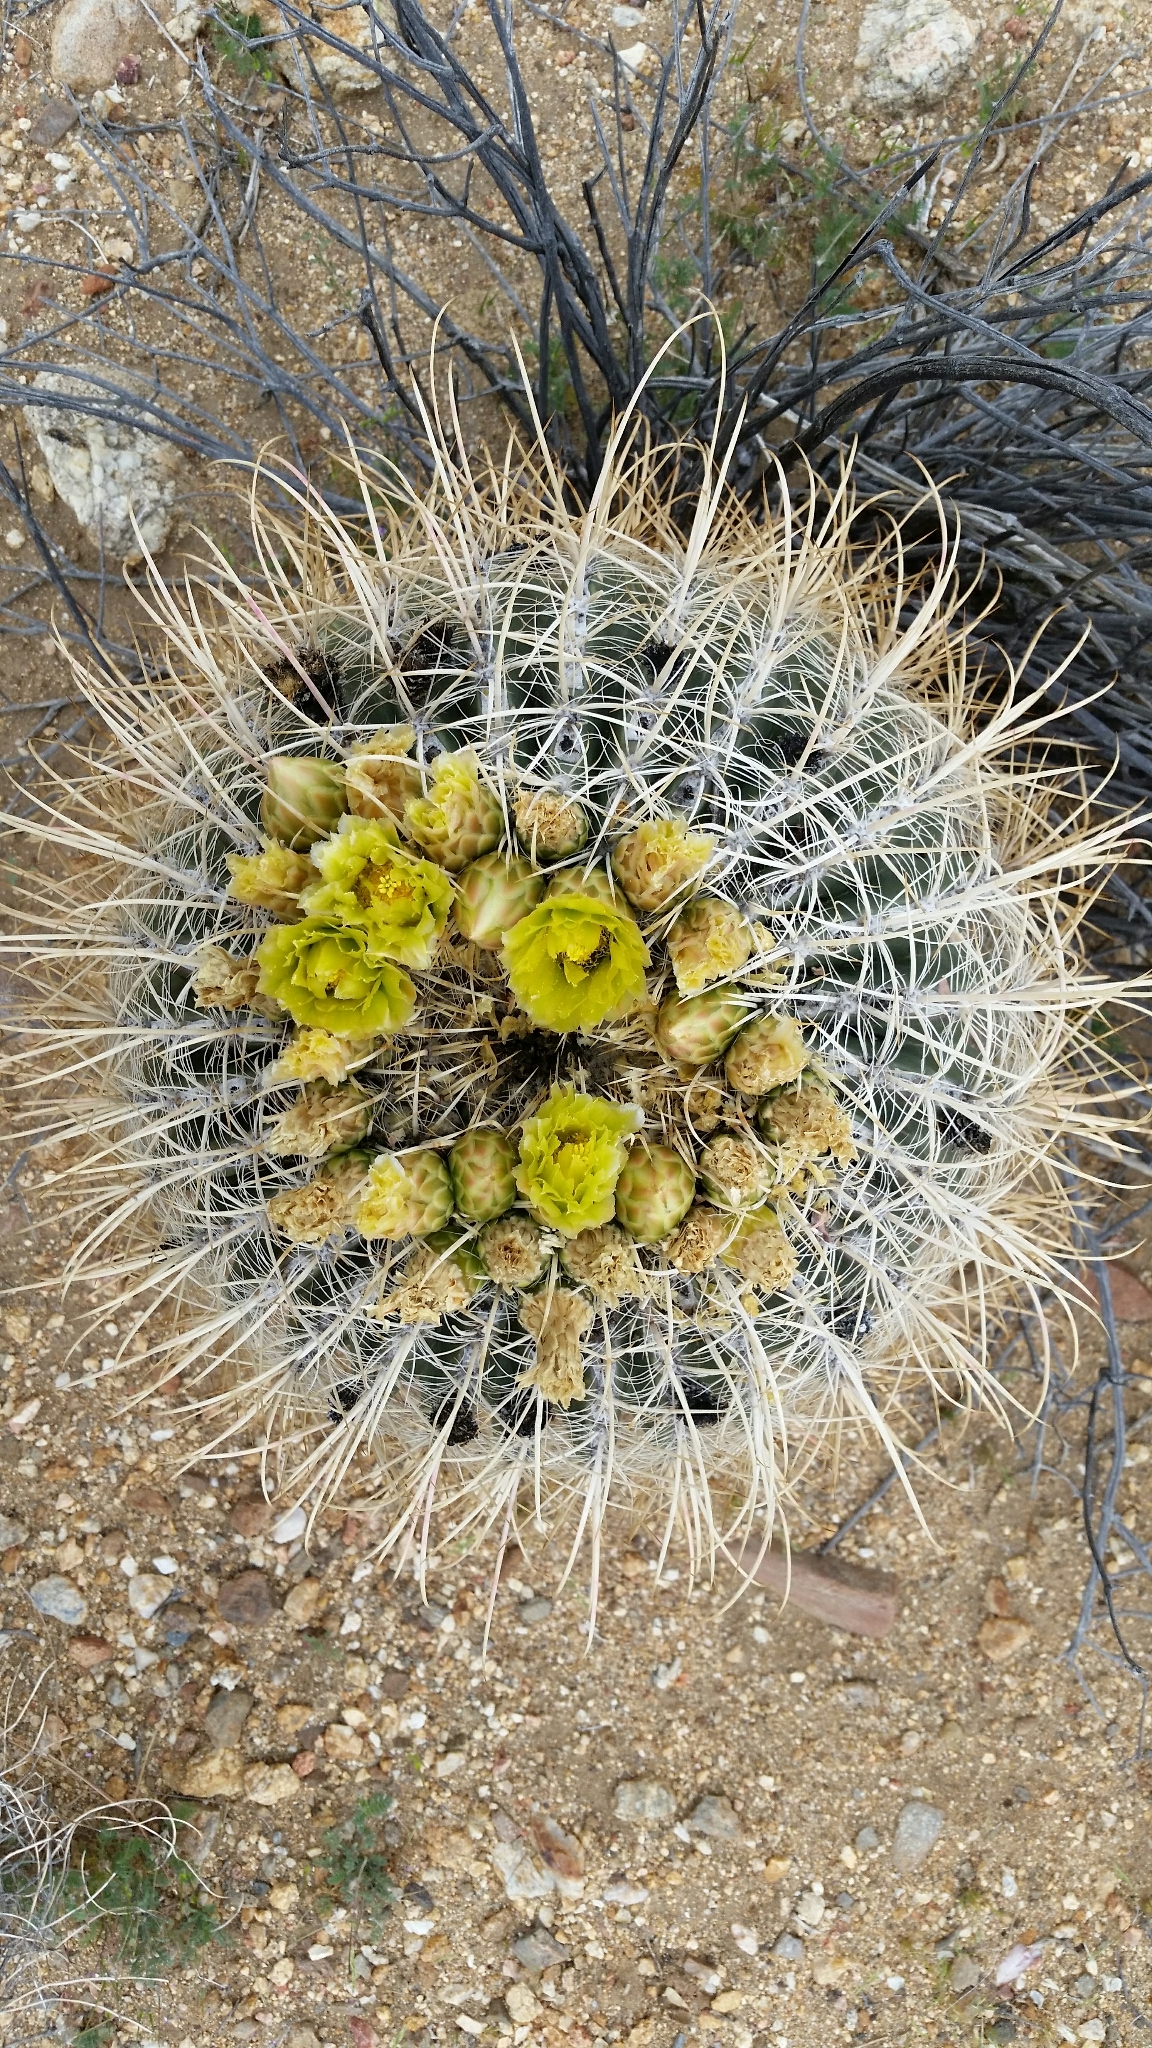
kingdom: Plantae
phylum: Tracheophyta
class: Magnoliopsida
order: Caryophyllales
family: Cactaceae
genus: Ferocactus
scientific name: Ferocactus cylindraceus
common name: California barrel cactus
